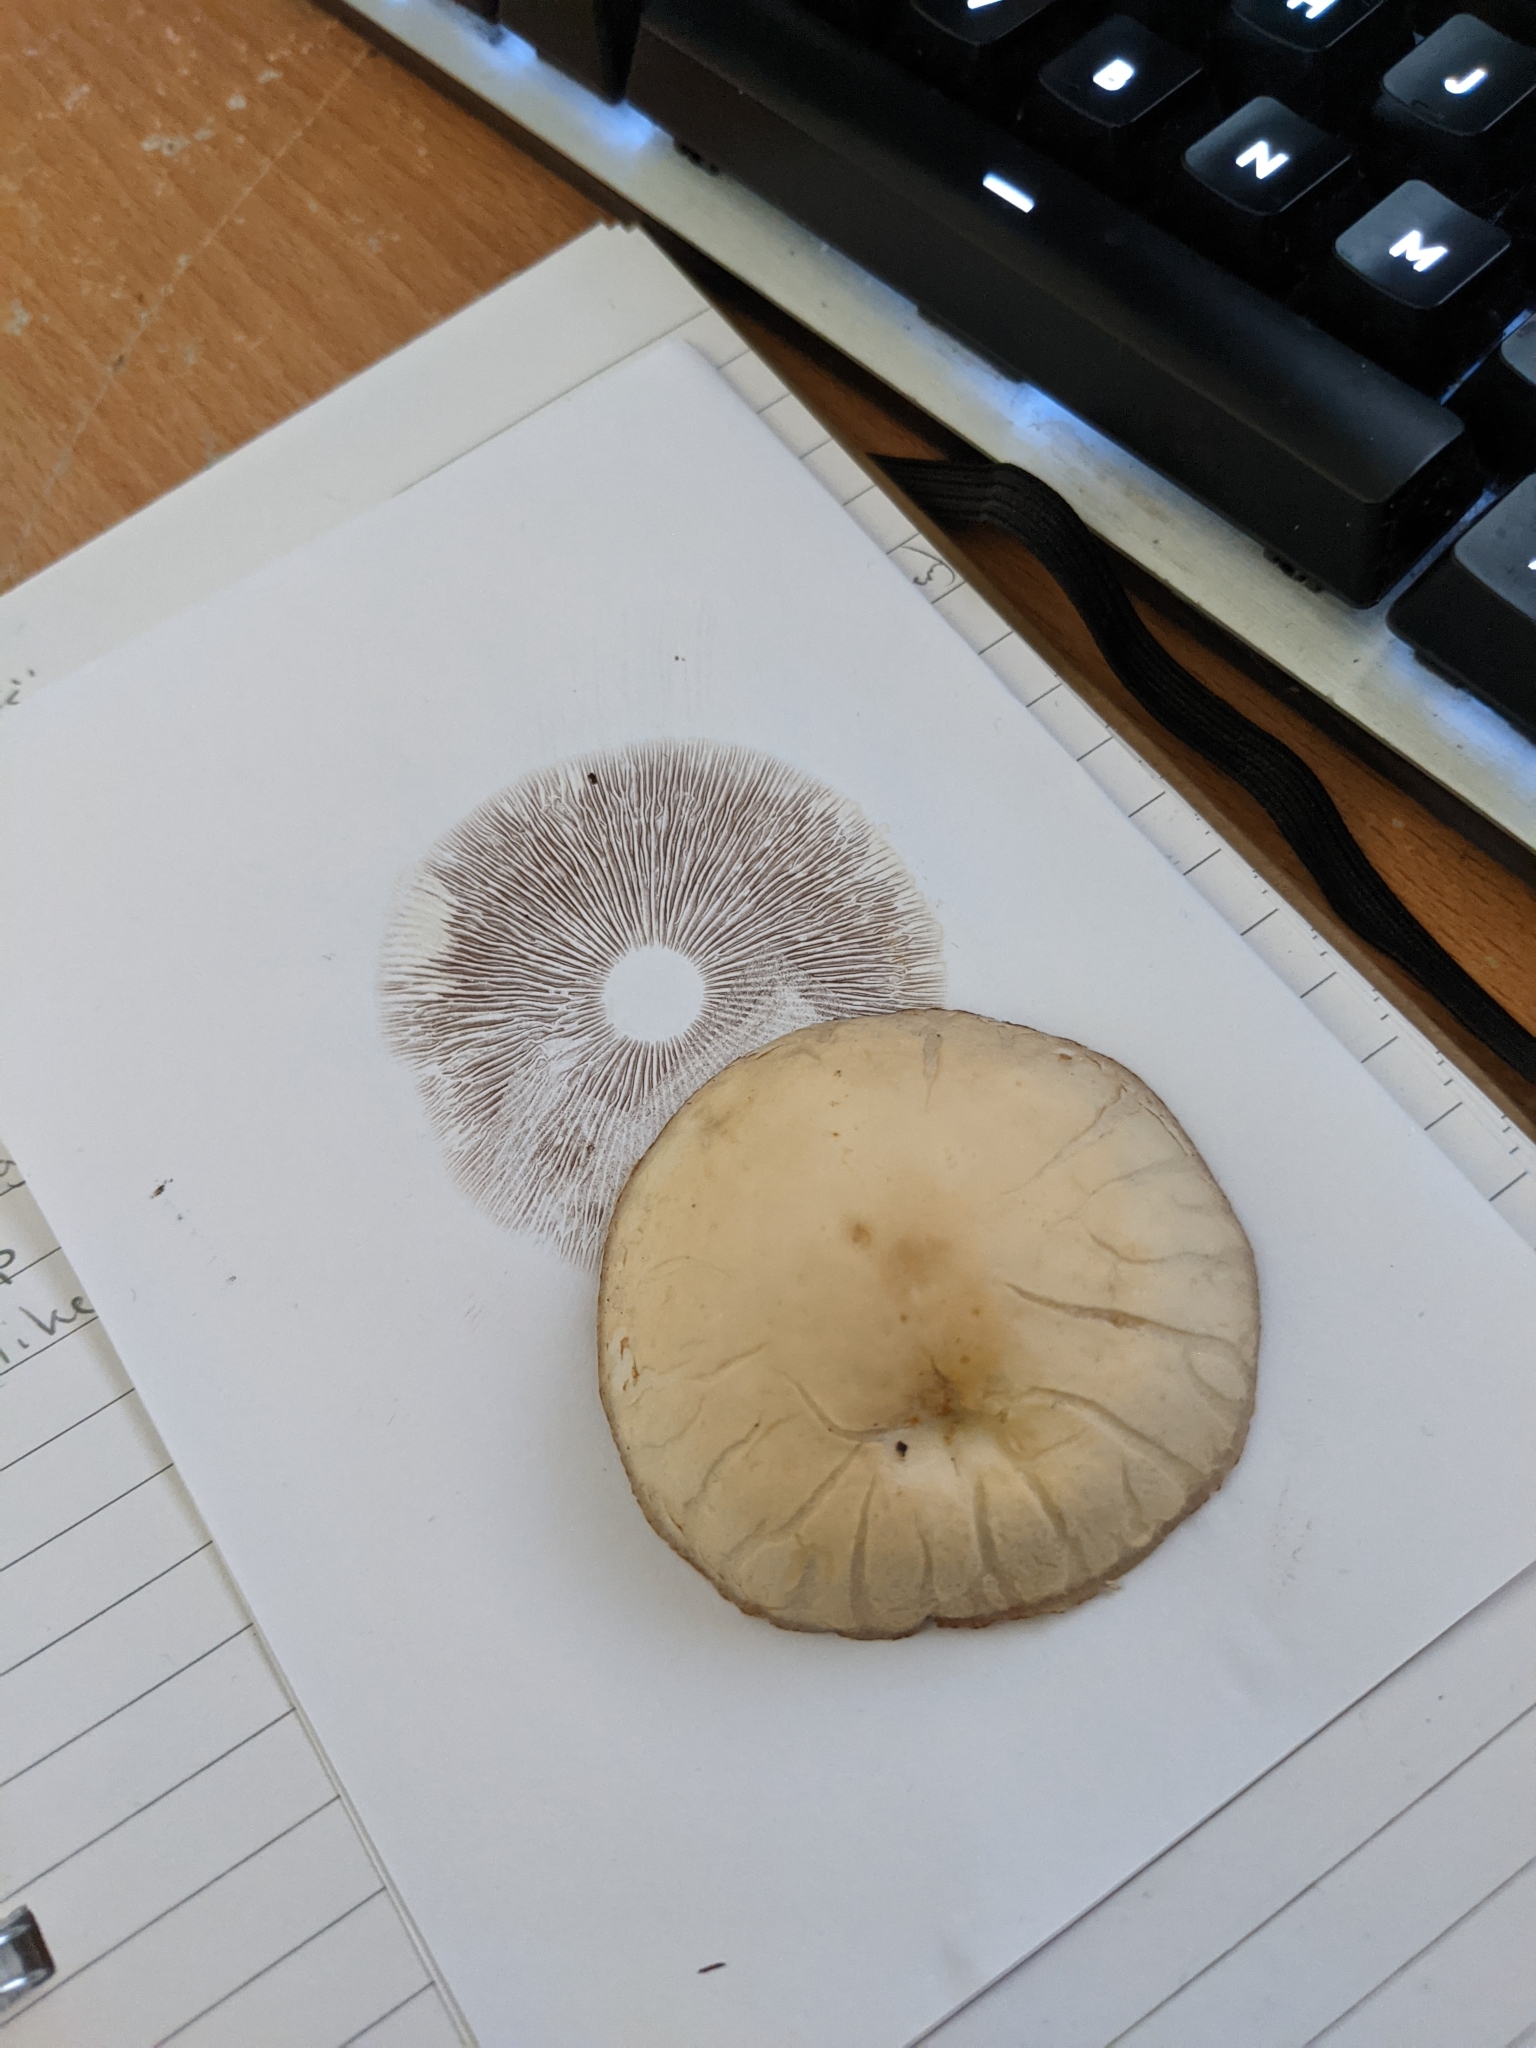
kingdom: Fungi
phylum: Basidiomycota
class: Agaricomycetes
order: Agaricales
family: Strophariaceae
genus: Agrocybe
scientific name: Agrocybe praecox
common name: Spring fieldcap
